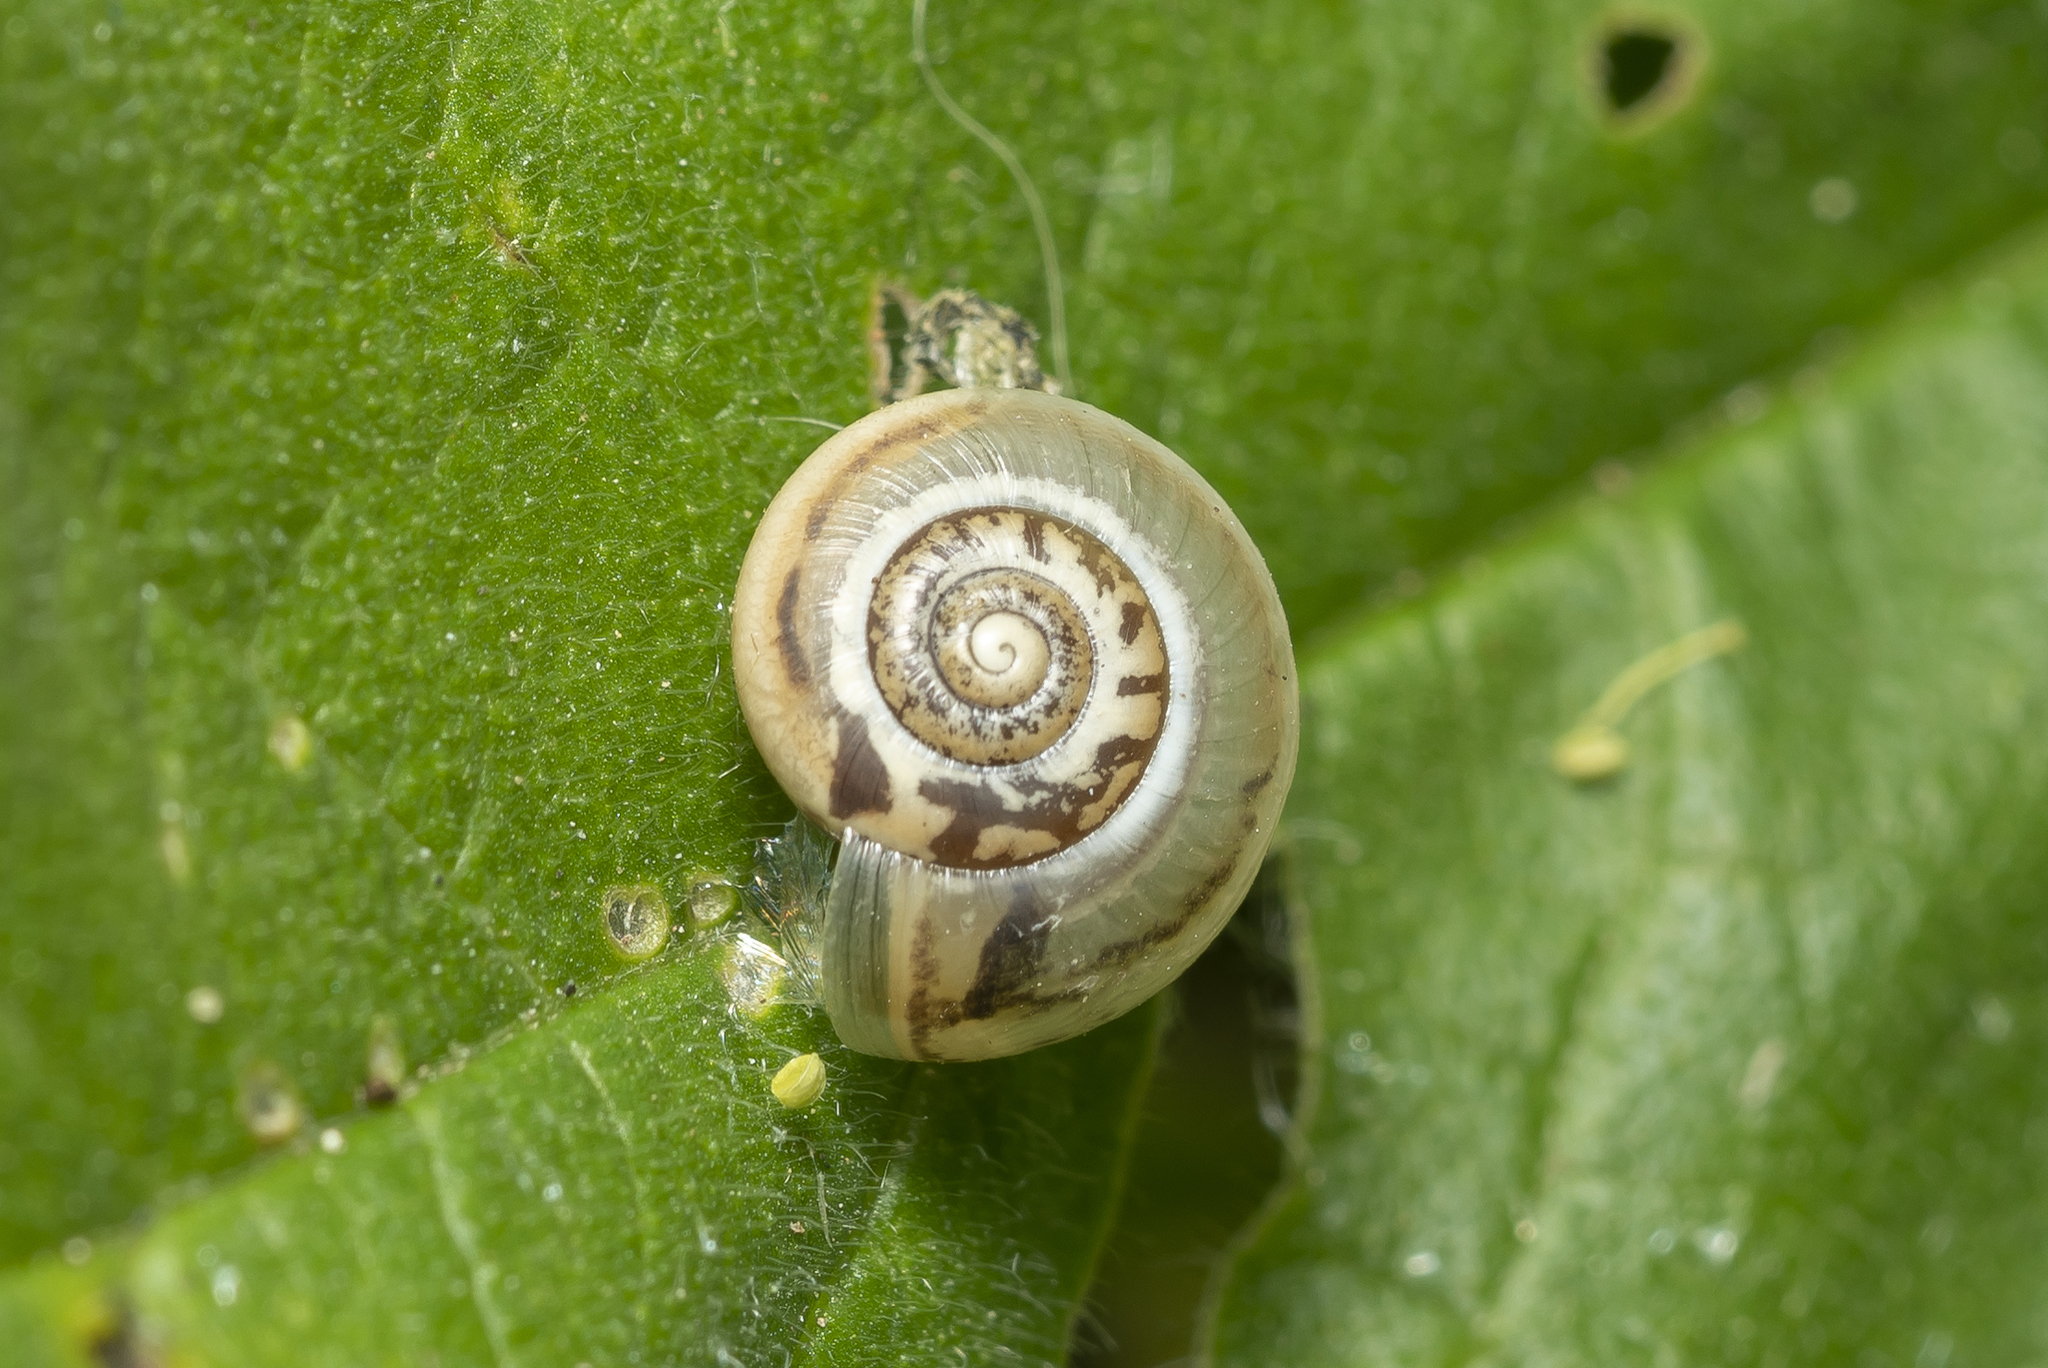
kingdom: Animalia
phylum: Mollusca
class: Gastropoda
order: Stylommatophora
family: Hygromiidae
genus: Monacha
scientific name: Monacha syriaca
